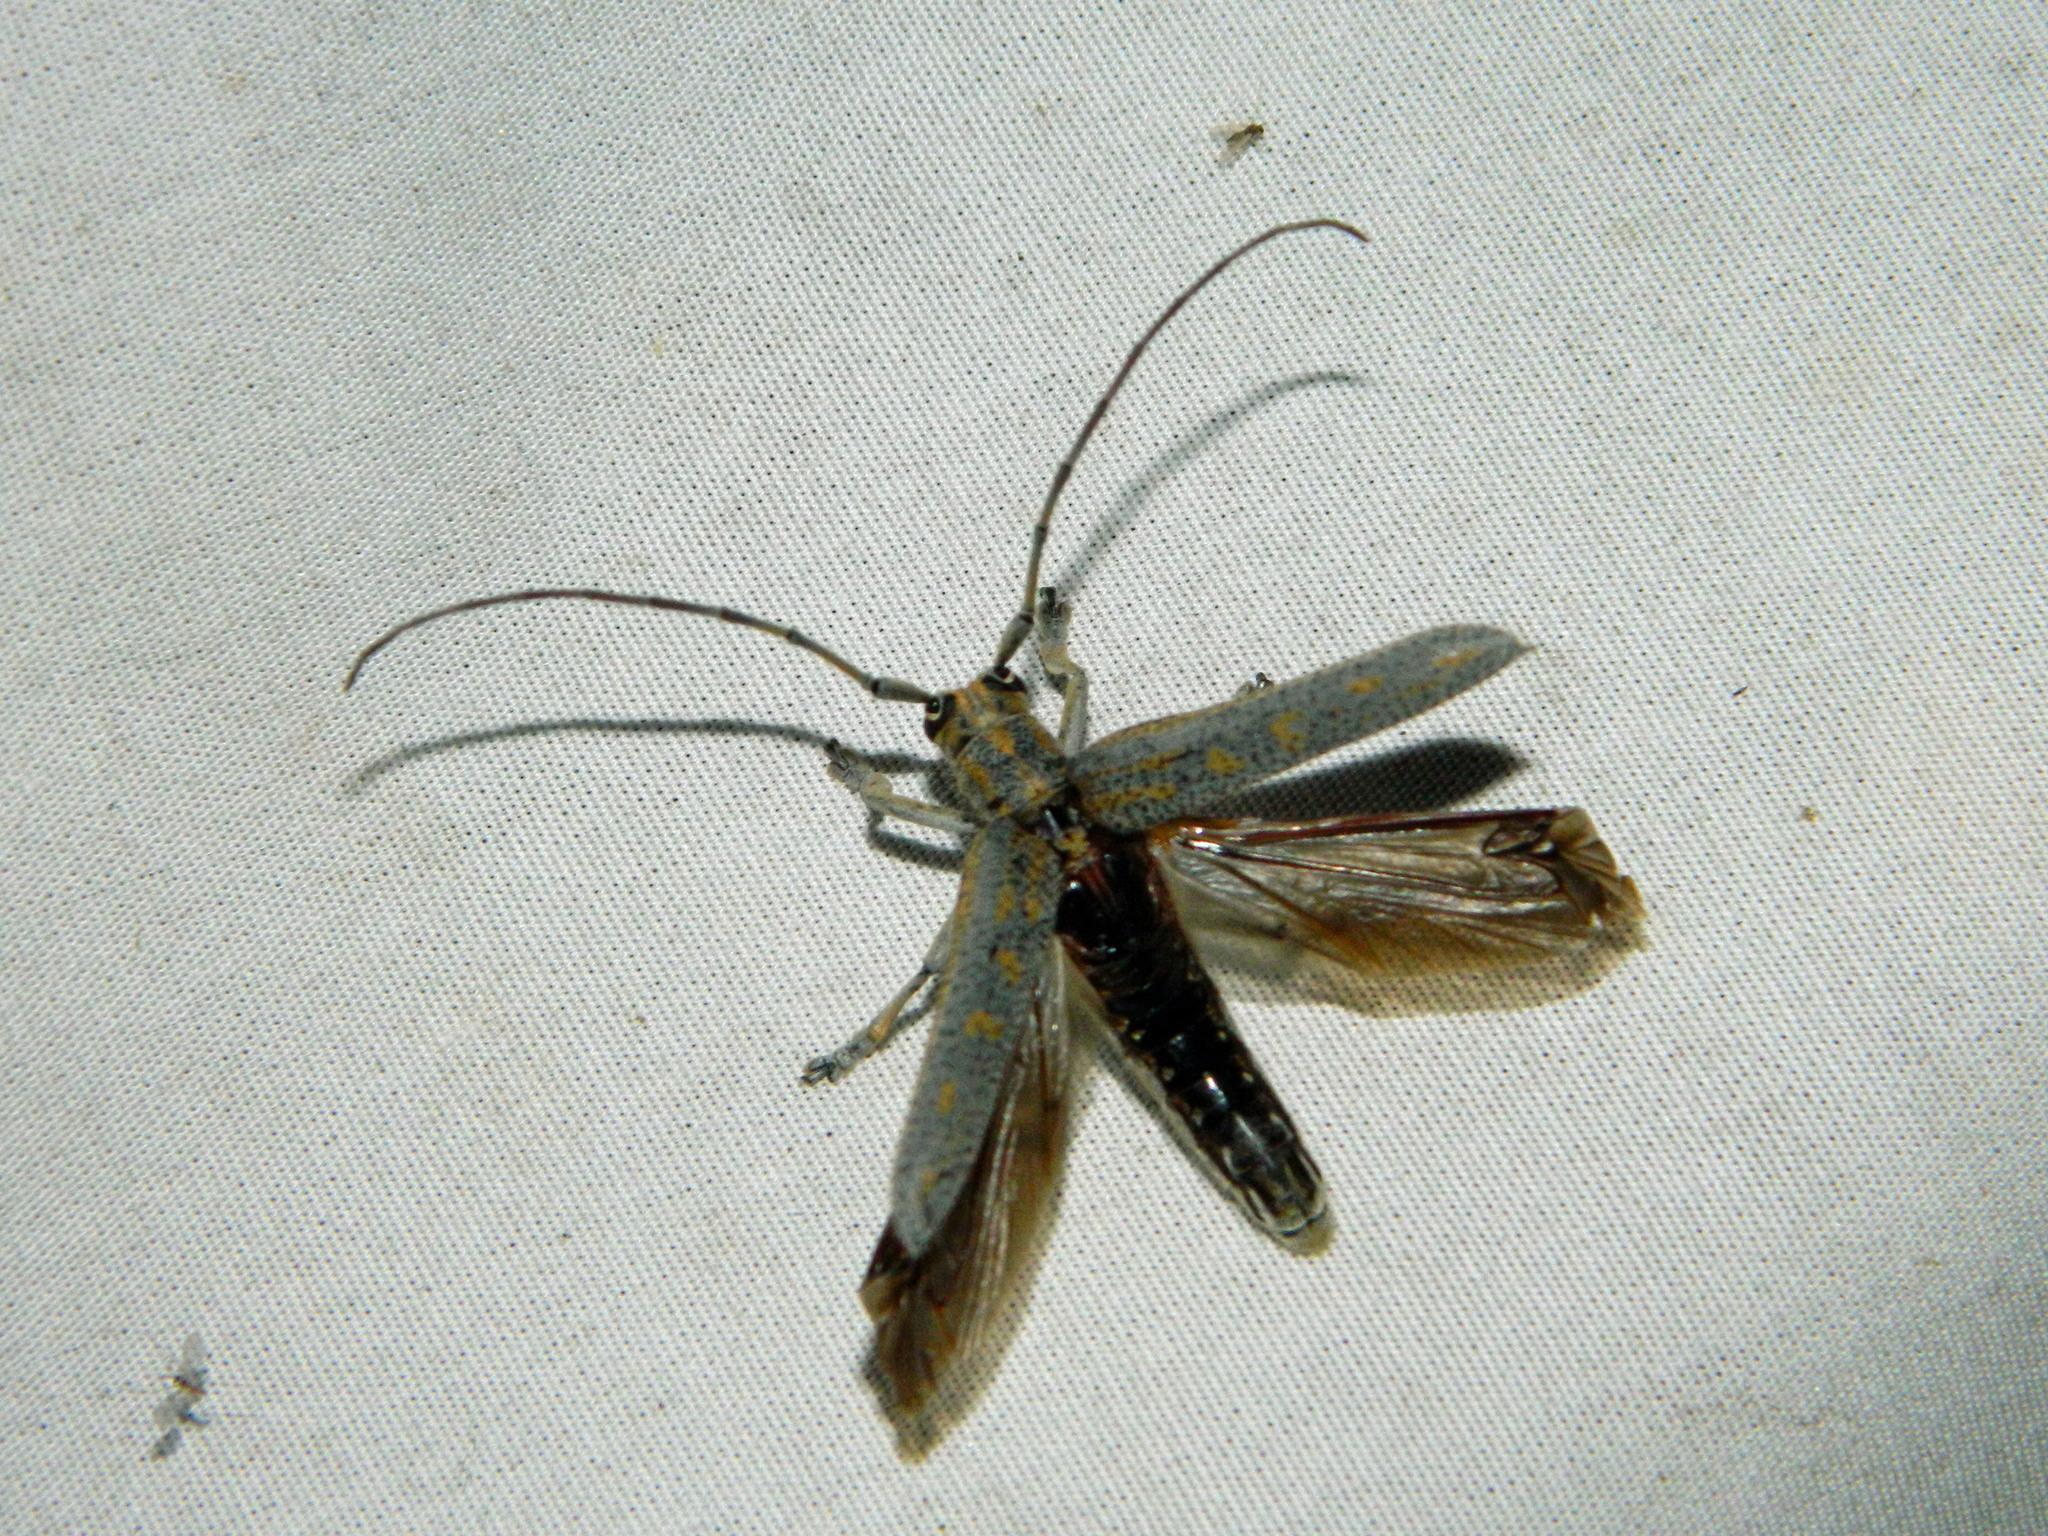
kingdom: Animalia
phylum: Arthropoda
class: Insecta
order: Coleoptera
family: Cerambycidae
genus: Saperda
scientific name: Saperda calcarata
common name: Poplar borer
